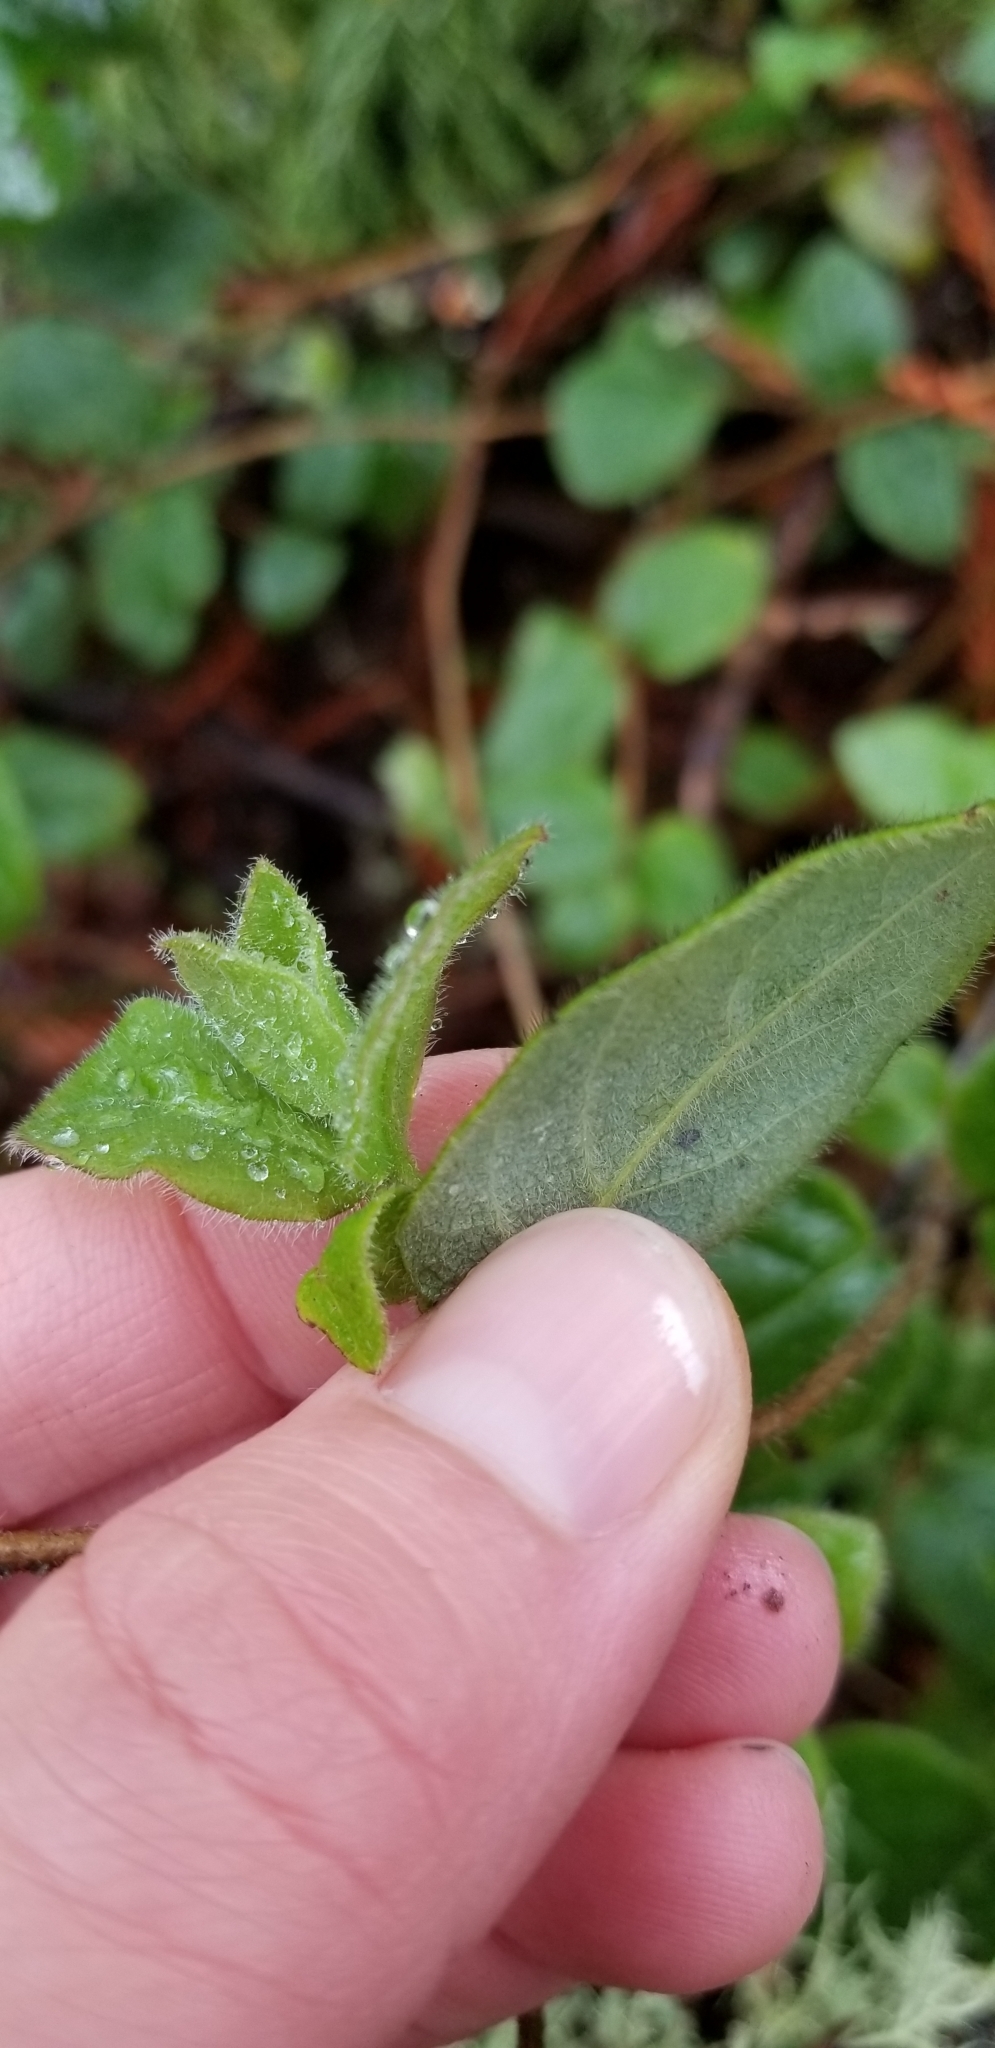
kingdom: Plantae
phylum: Tracheophyta
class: Magnoliopsida
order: Dipsacales
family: Caprifoliaceae
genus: Lonicera
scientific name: Lonicera hispidula
